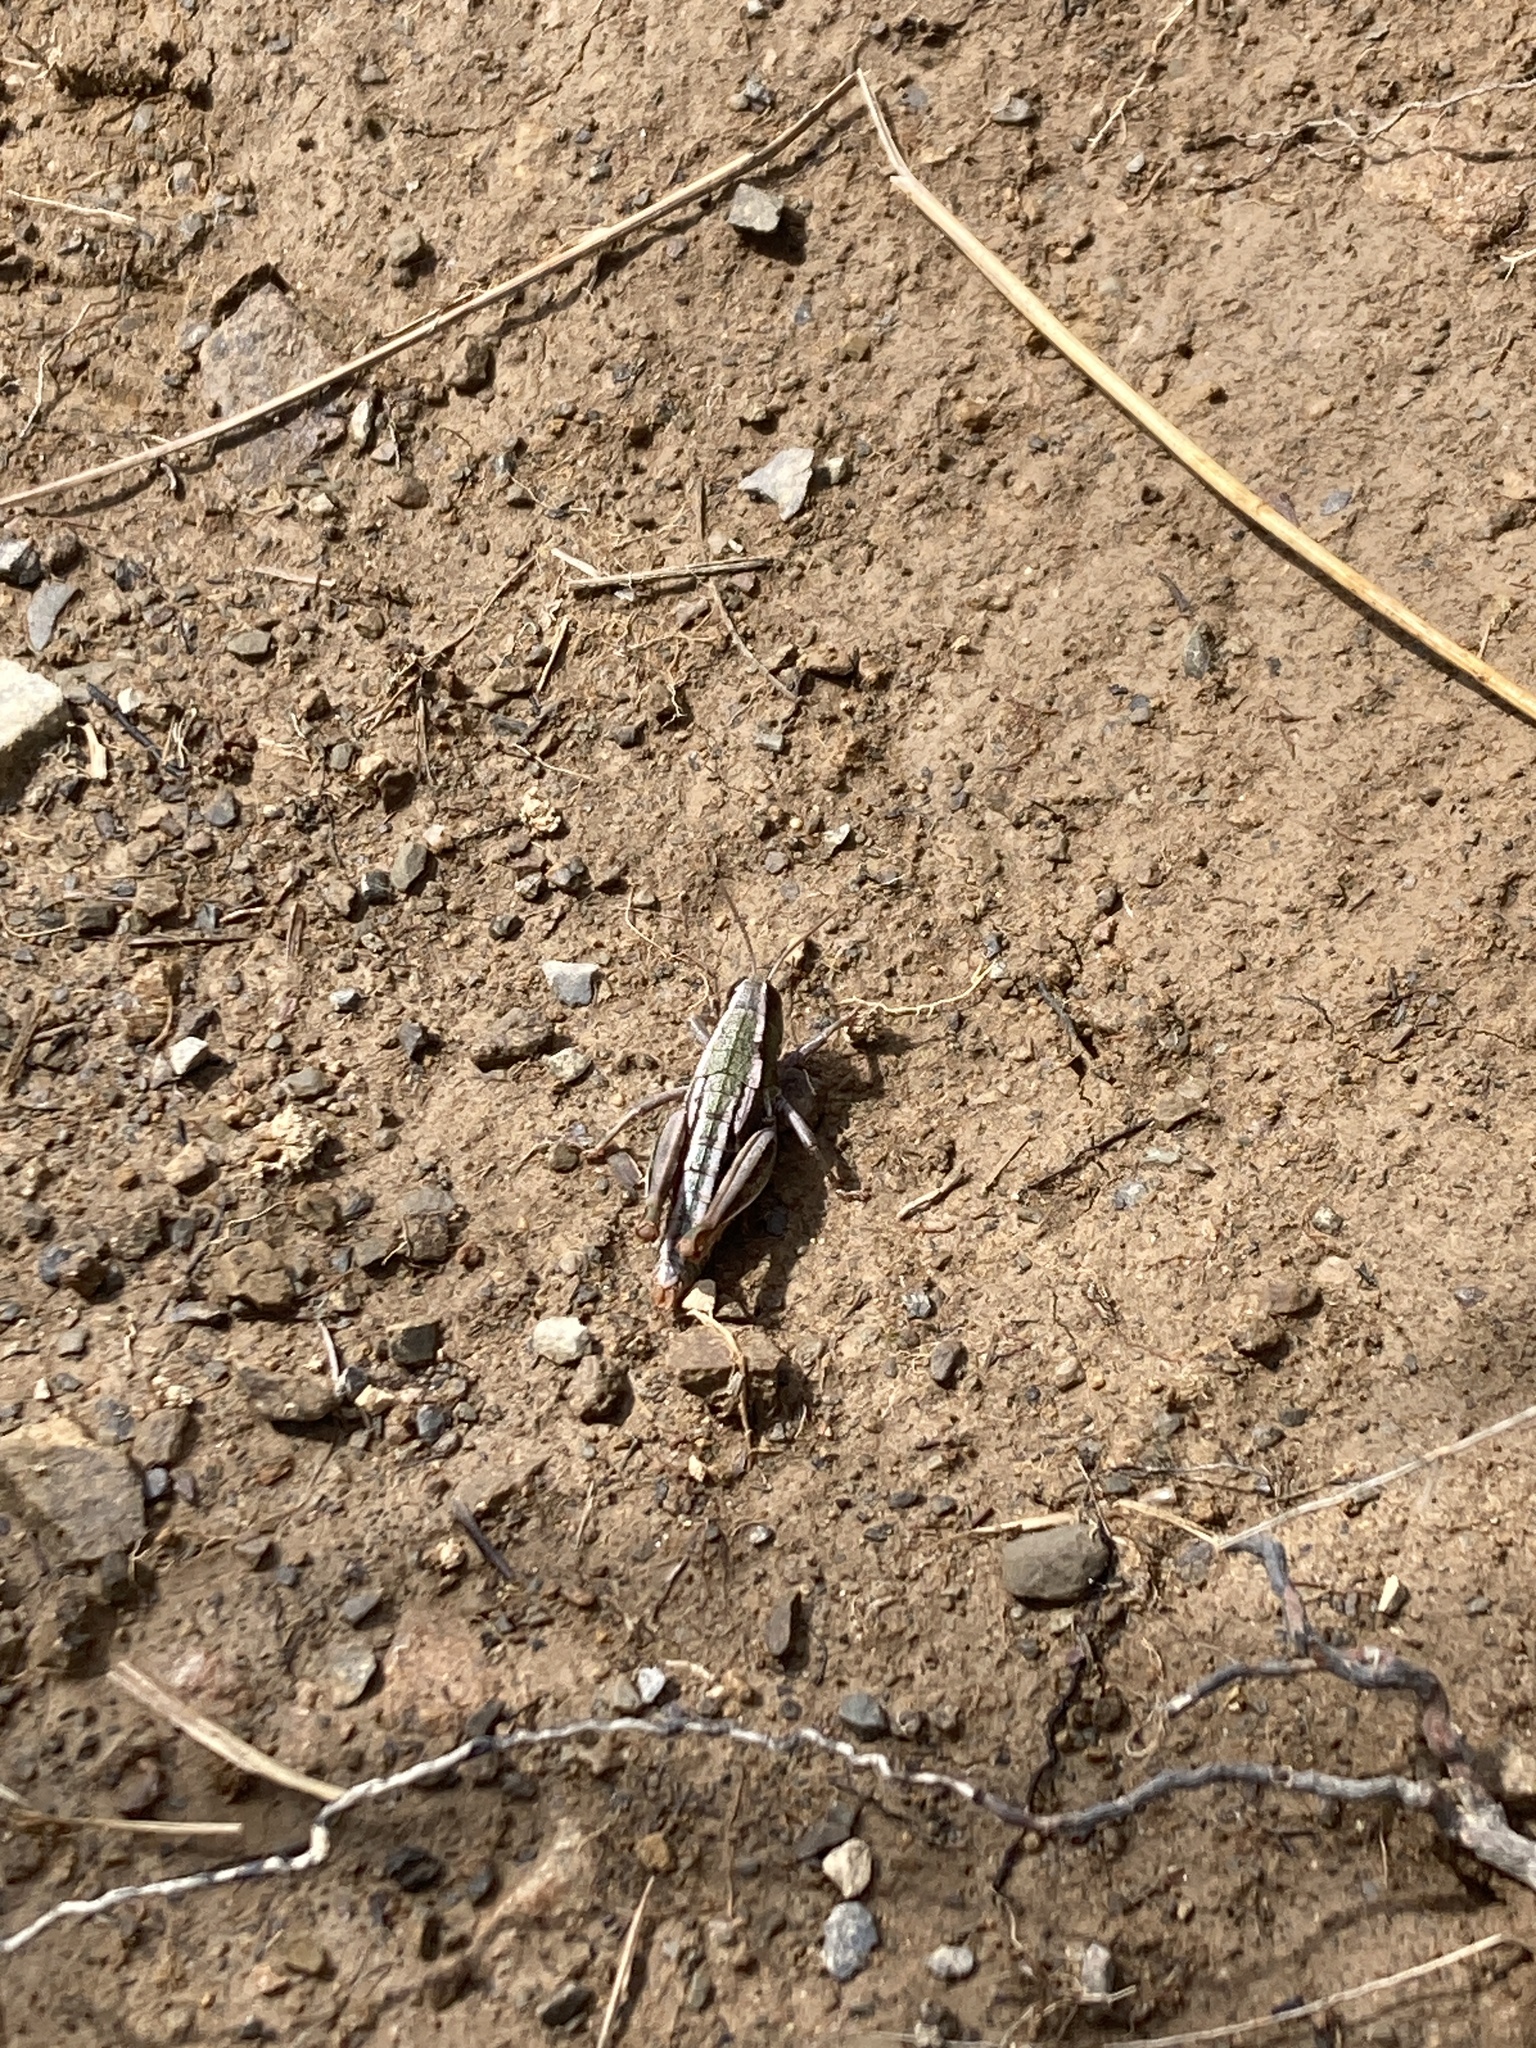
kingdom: Animalia
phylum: Arthropoda
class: Insecta
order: Orthoptera
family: Acrididae
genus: Sigaus
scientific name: Sigaus
